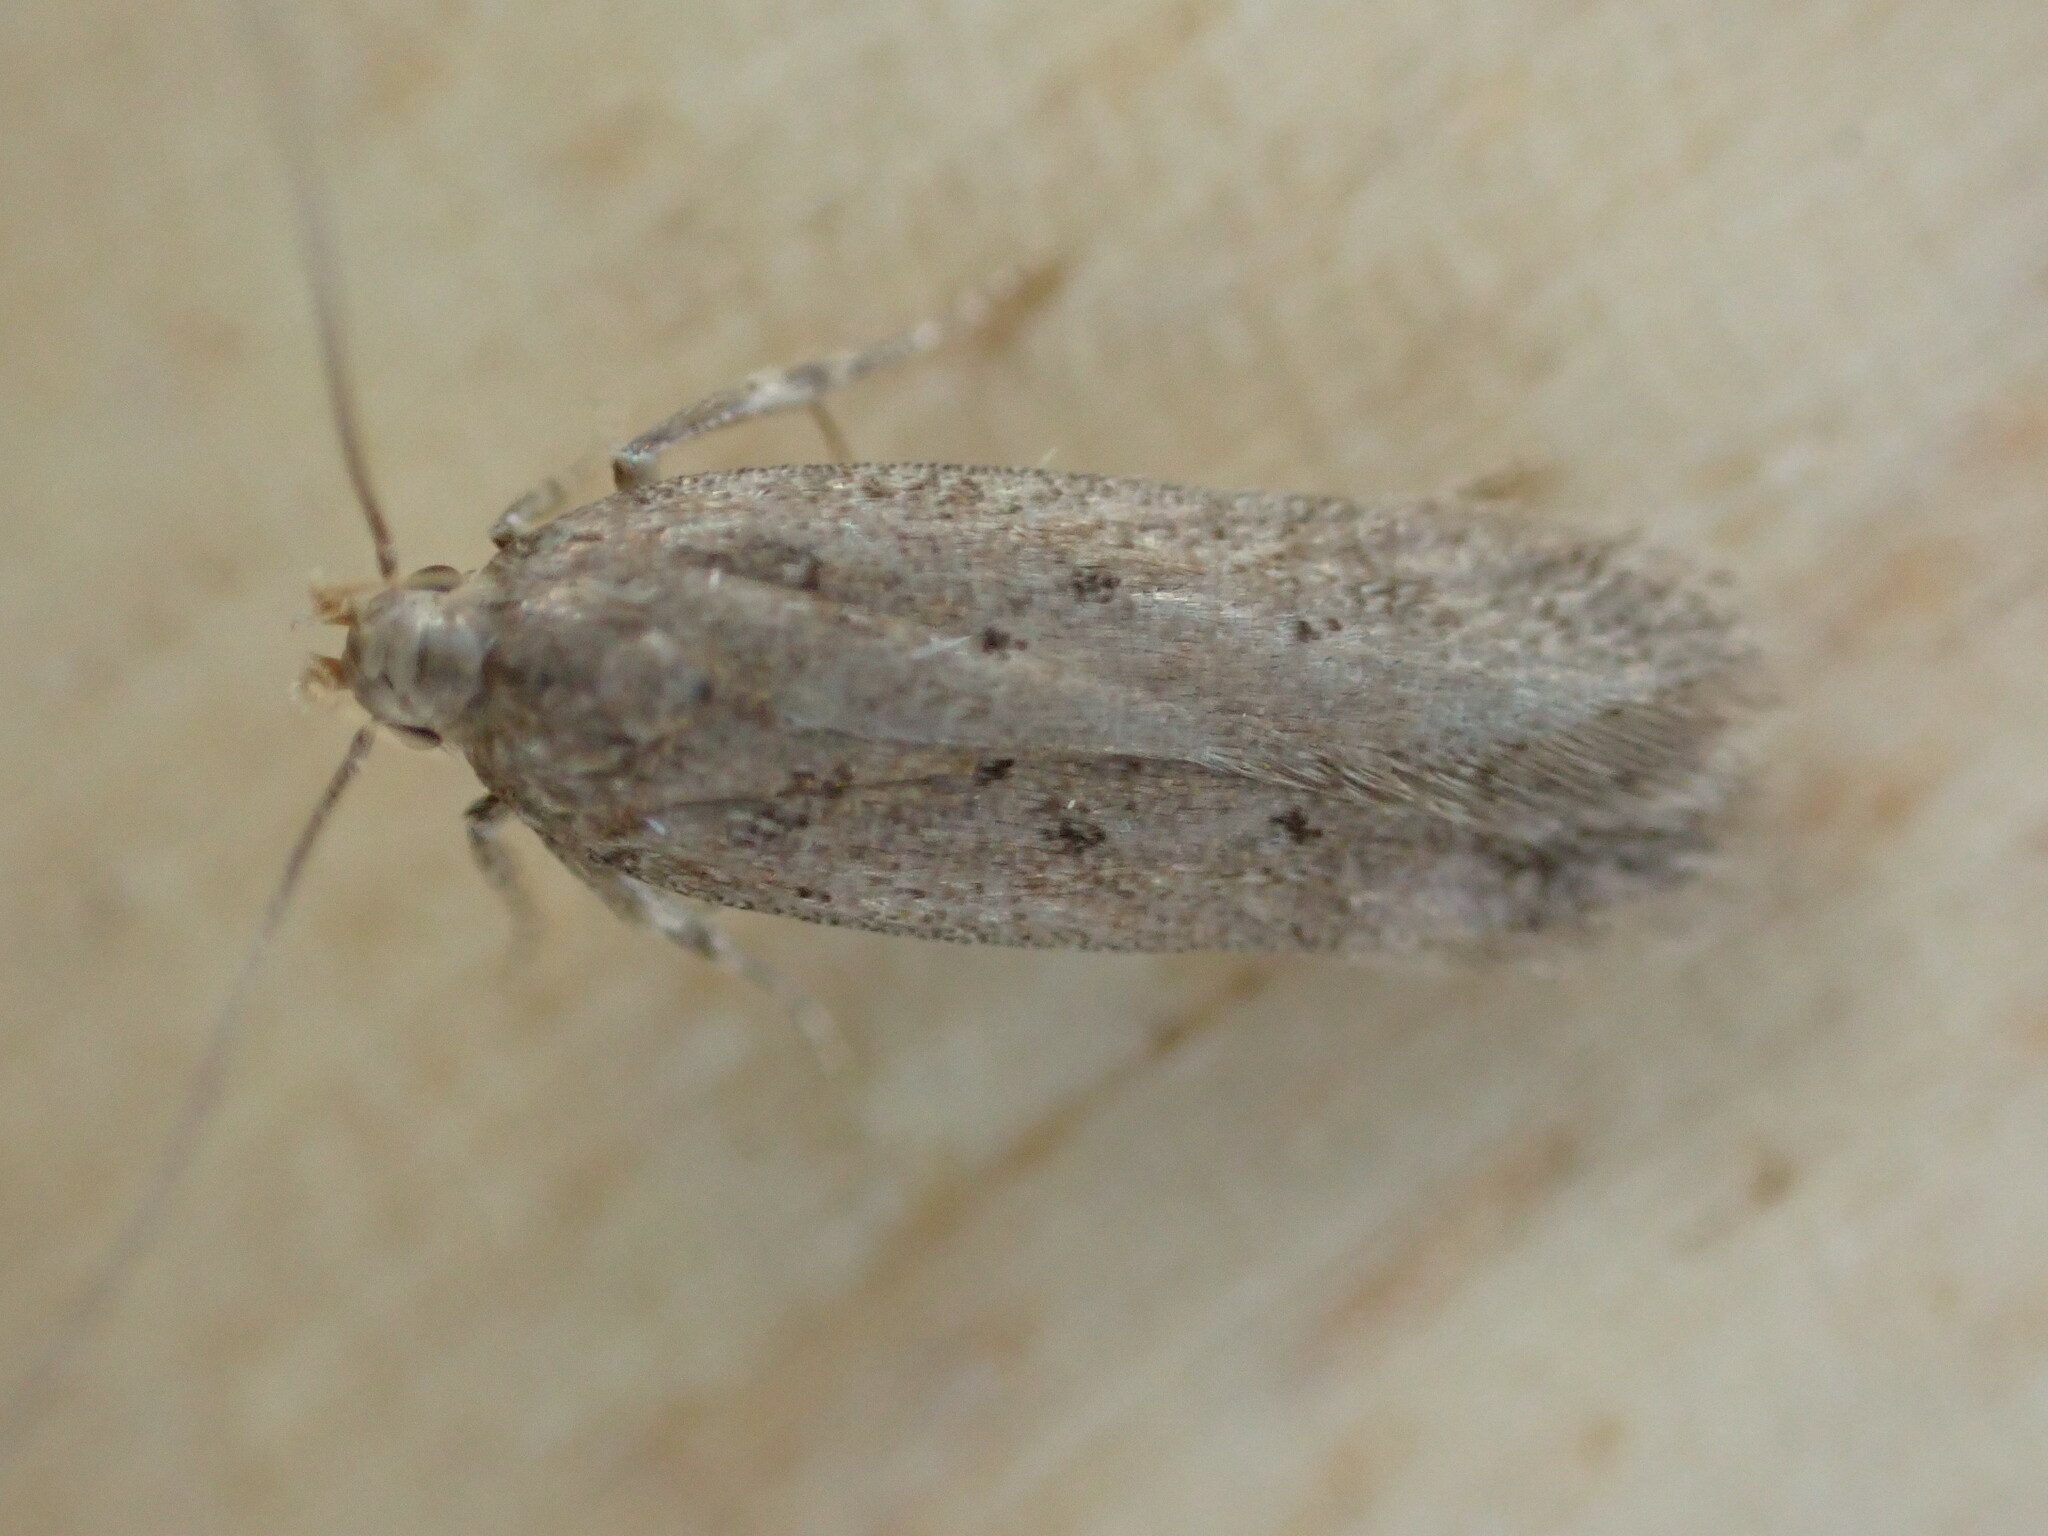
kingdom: Animalia
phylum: Arthropoda
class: Insecta
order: Lepidoptera
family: Gelechiidae
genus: Bryotropha
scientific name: Bryotropha terrella
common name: Cinerous groundling
